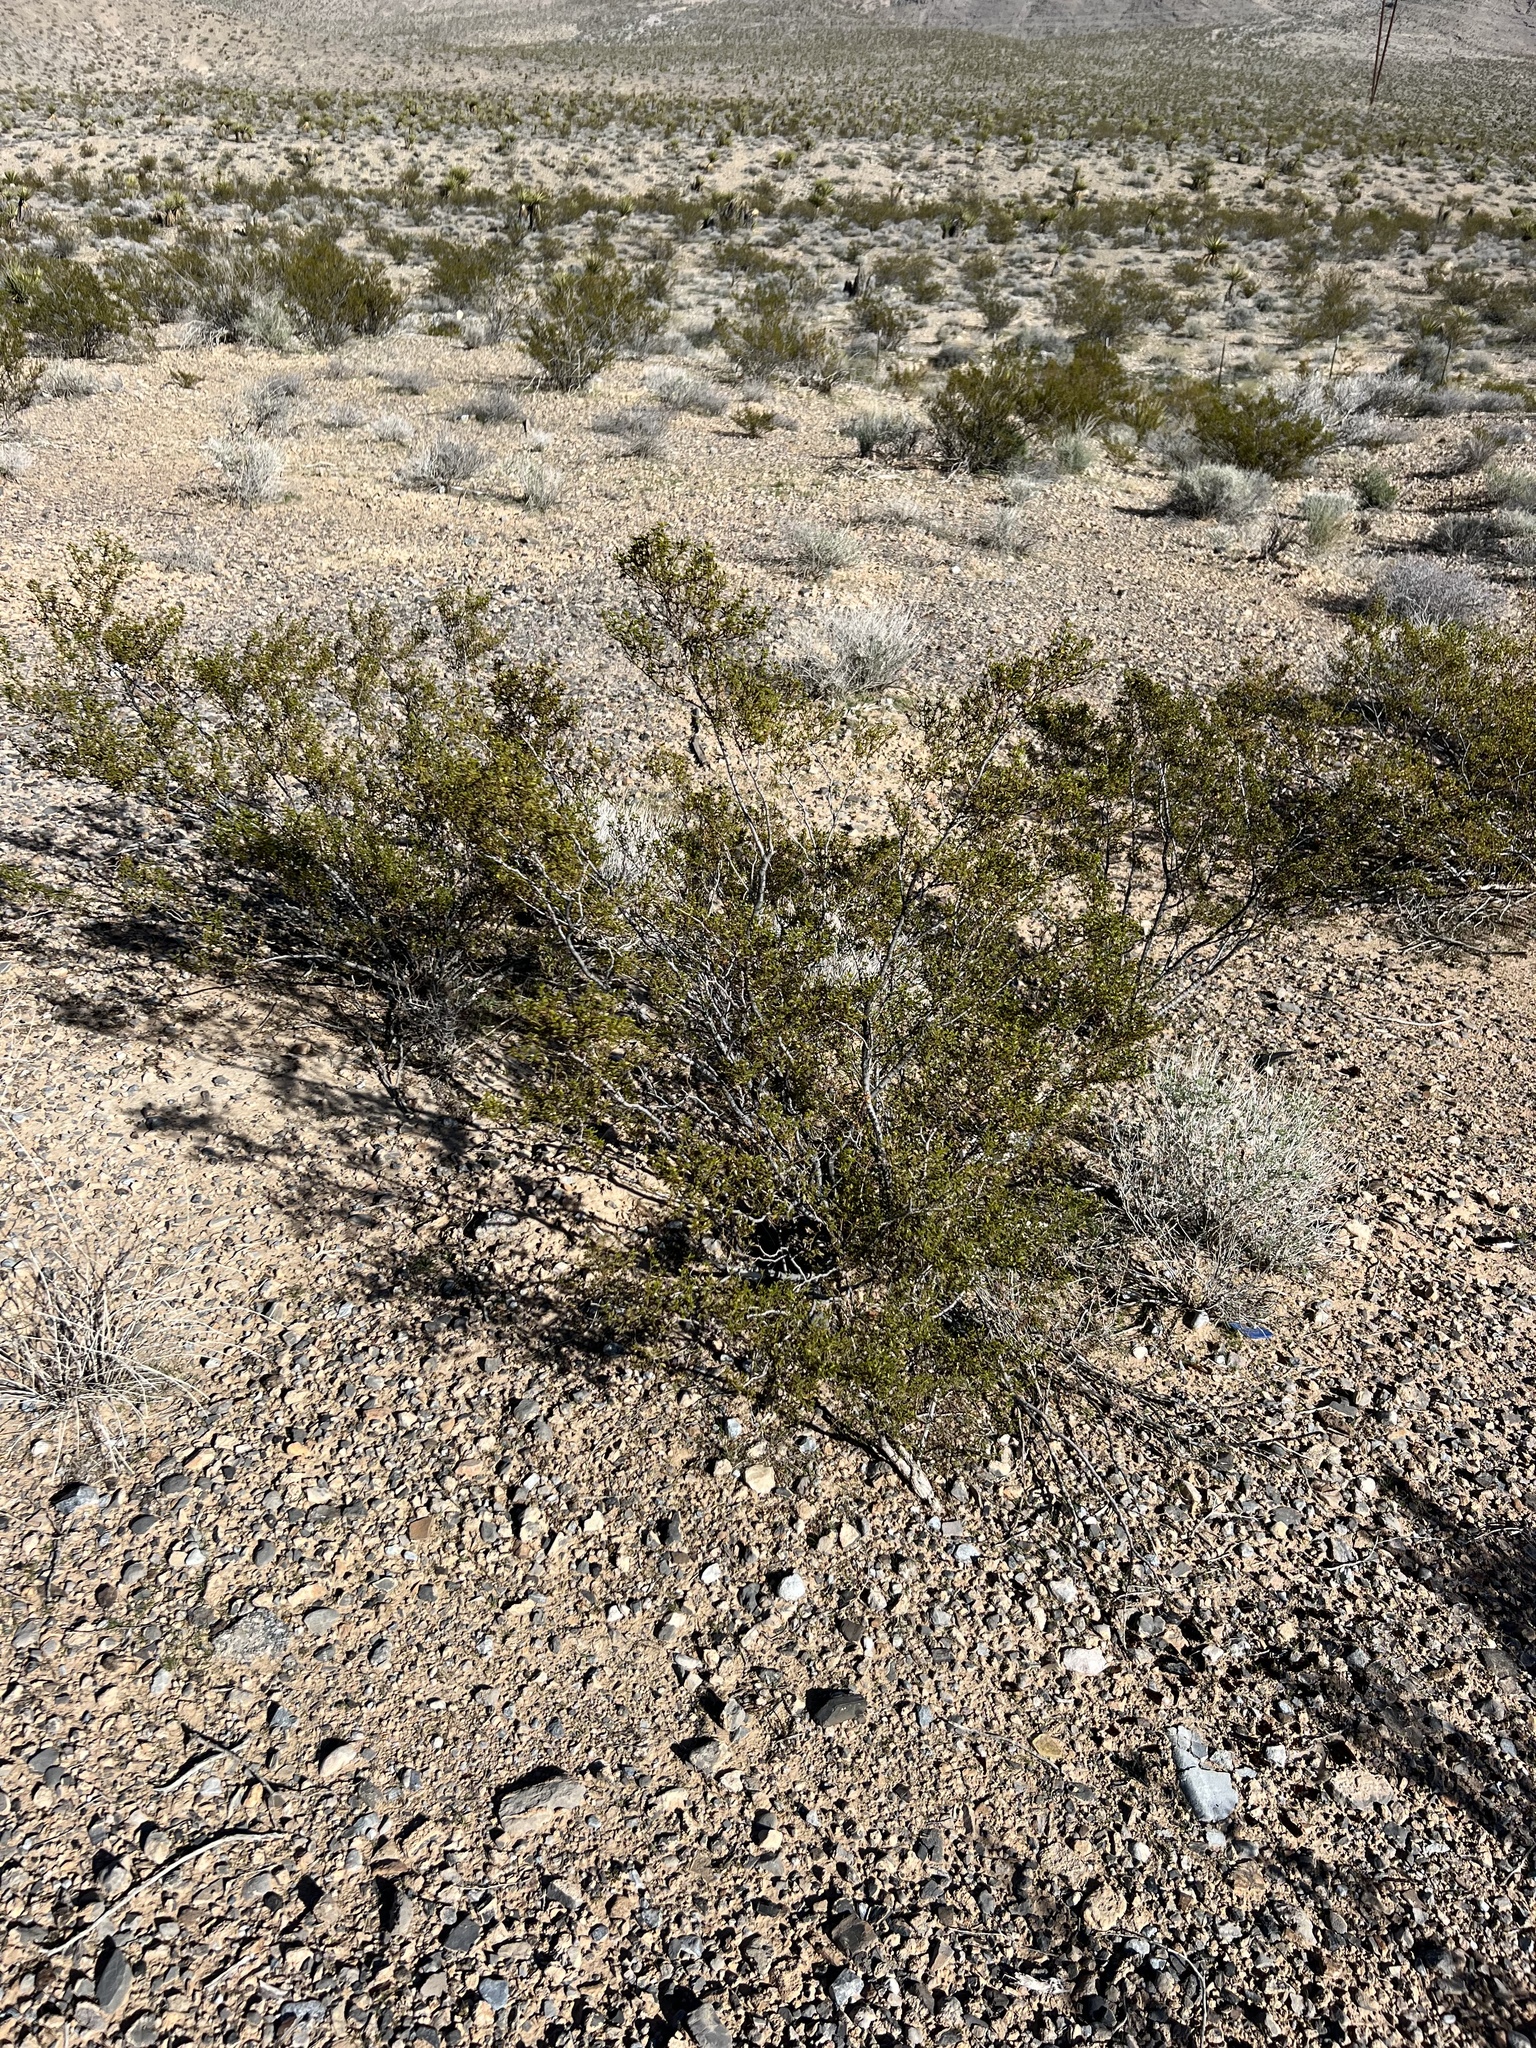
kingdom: Plantae
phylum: Tracheophyta
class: Magnoliopsida
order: Zygophyllales
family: Zygophyllaceae
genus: Larrea
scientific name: Larrea tridentata
